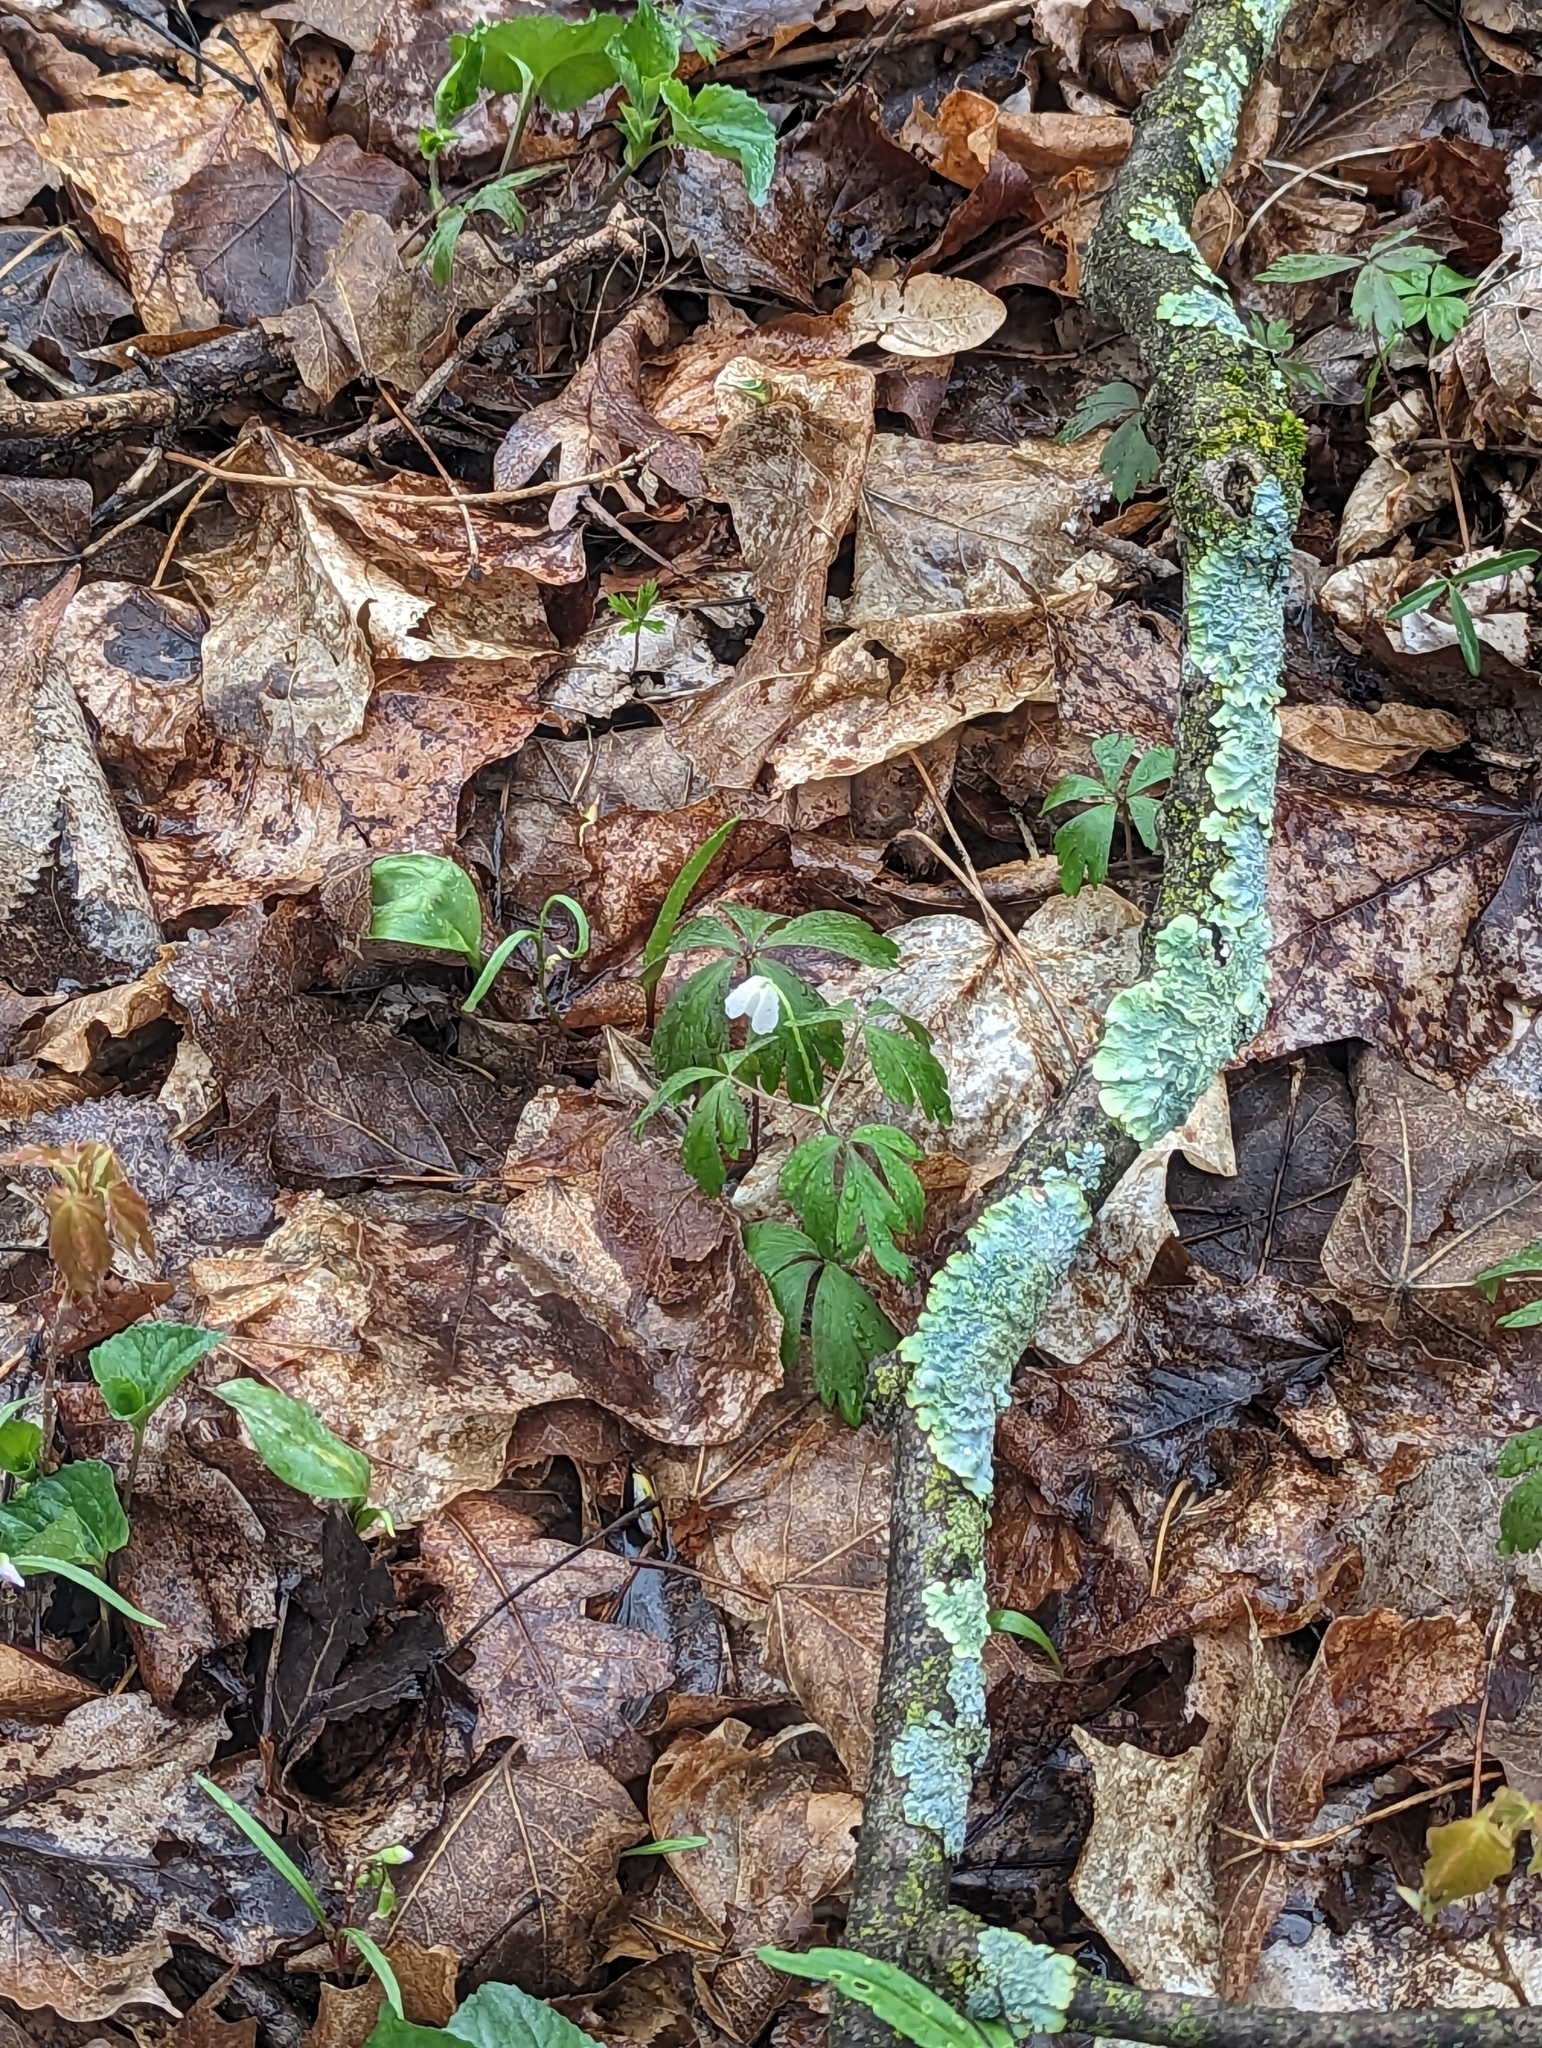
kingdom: Plantae
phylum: Tracheophyta
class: Magnoliopsida
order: Ranunculales
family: Ranunculaceae
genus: Anemone
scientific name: Anemone quinquefolia
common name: Wood anemone
